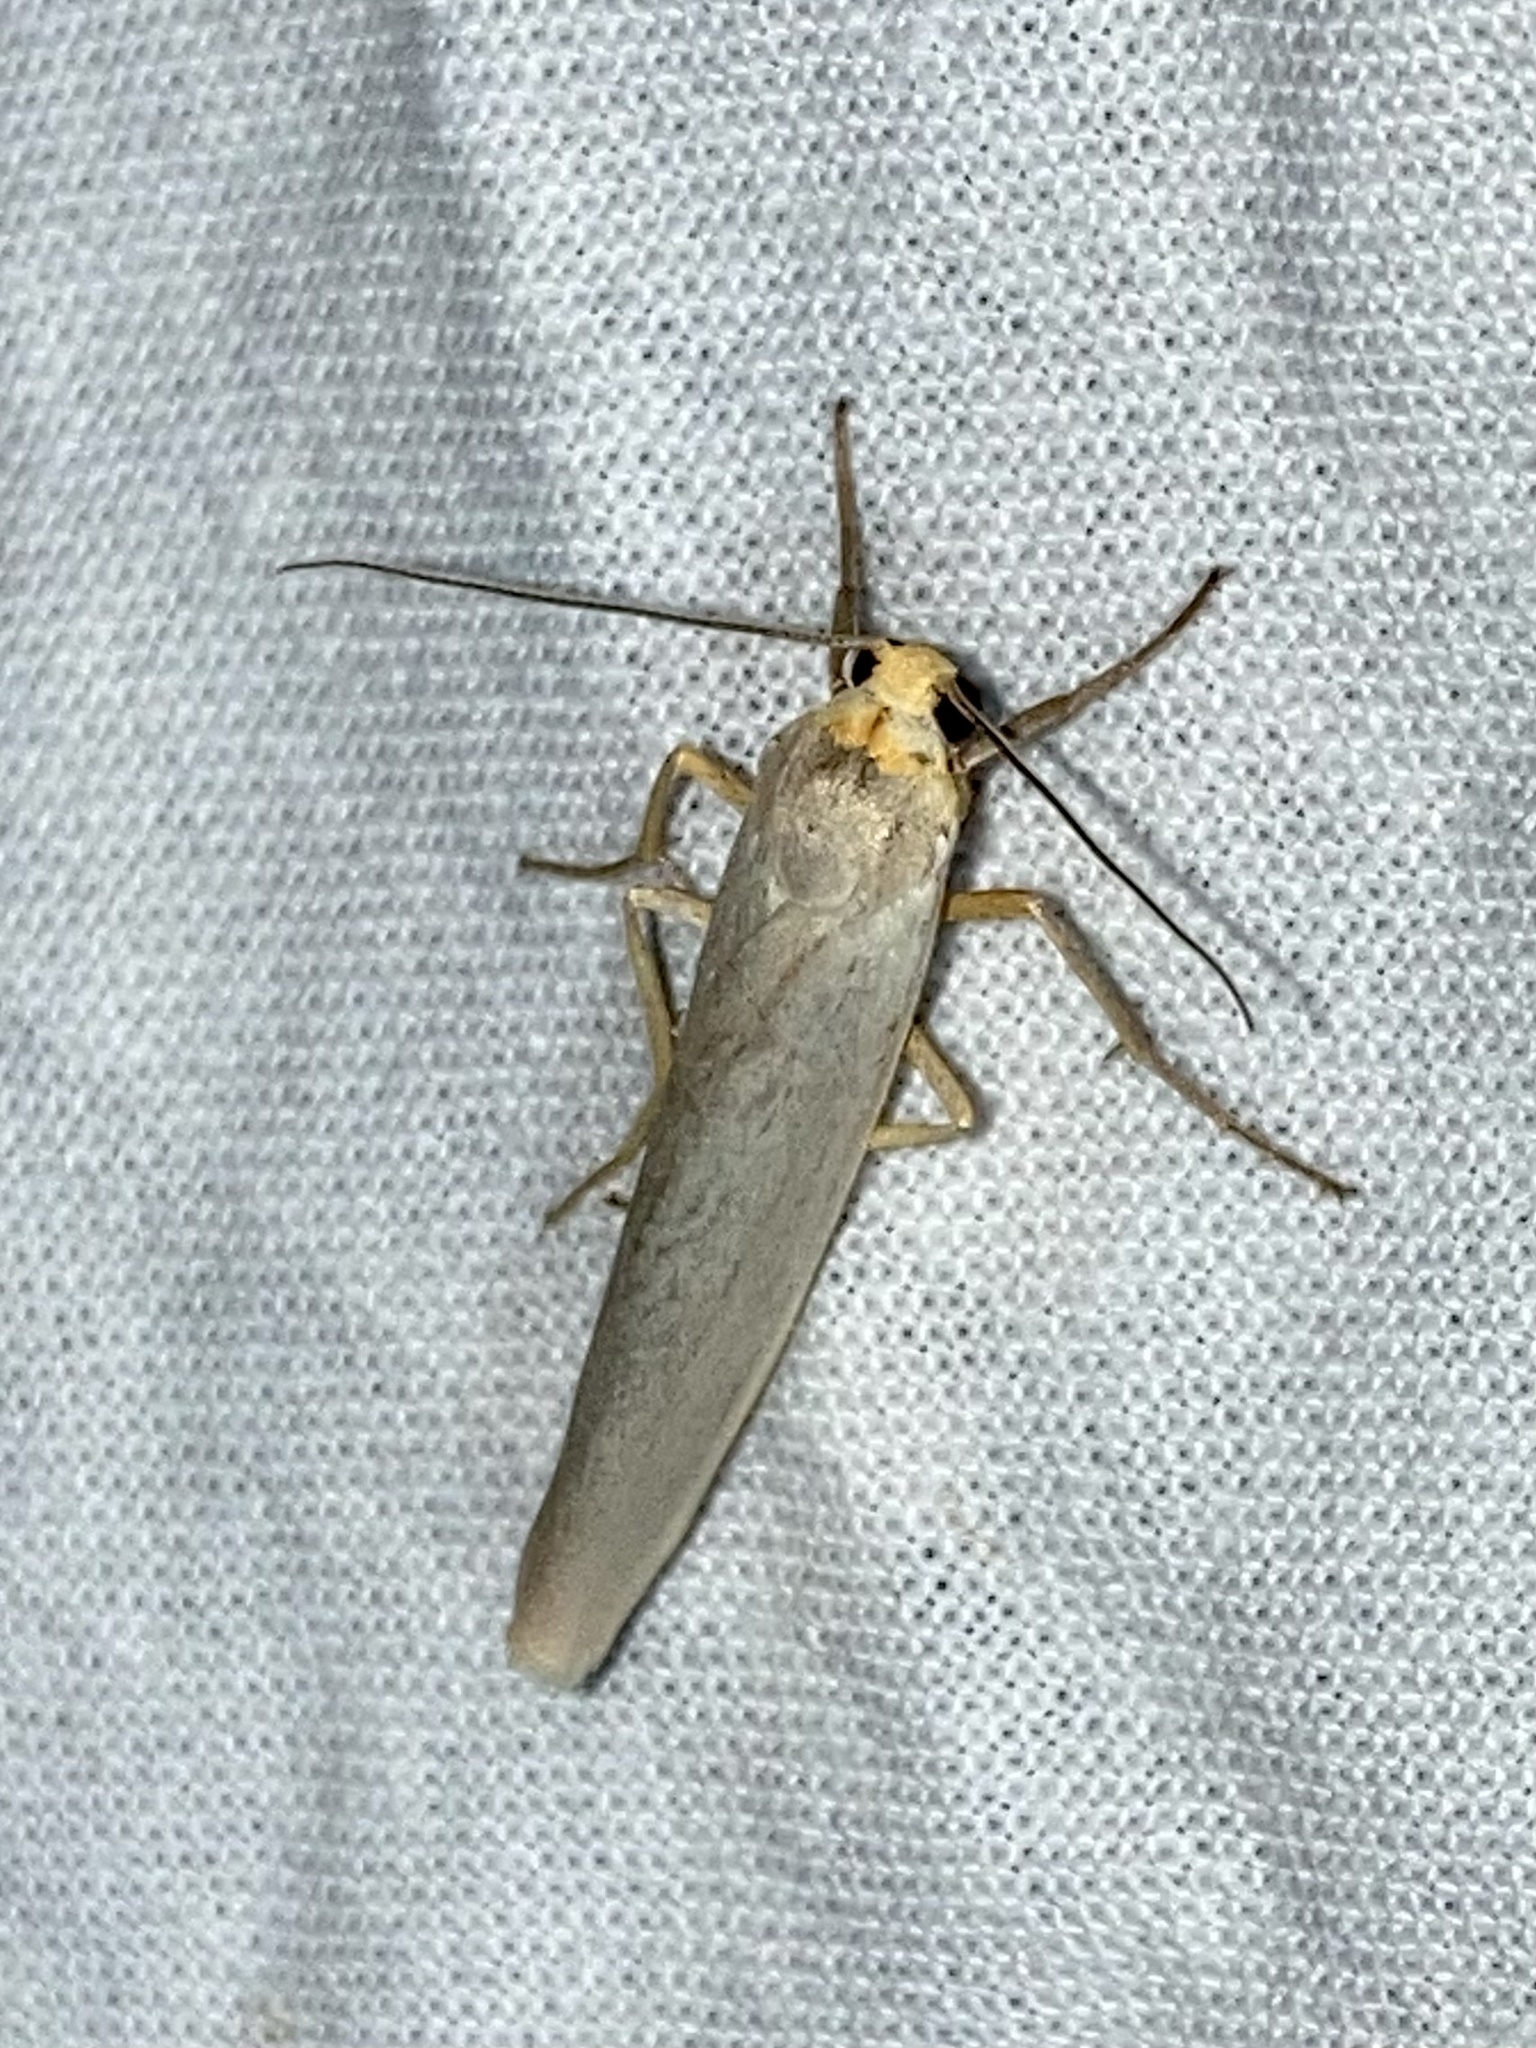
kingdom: Animalia
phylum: Arthropoda
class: Insecta
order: Lepidoptera
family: Erebidae
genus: Eilema
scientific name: Eilema caniola
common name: Hoary footman
